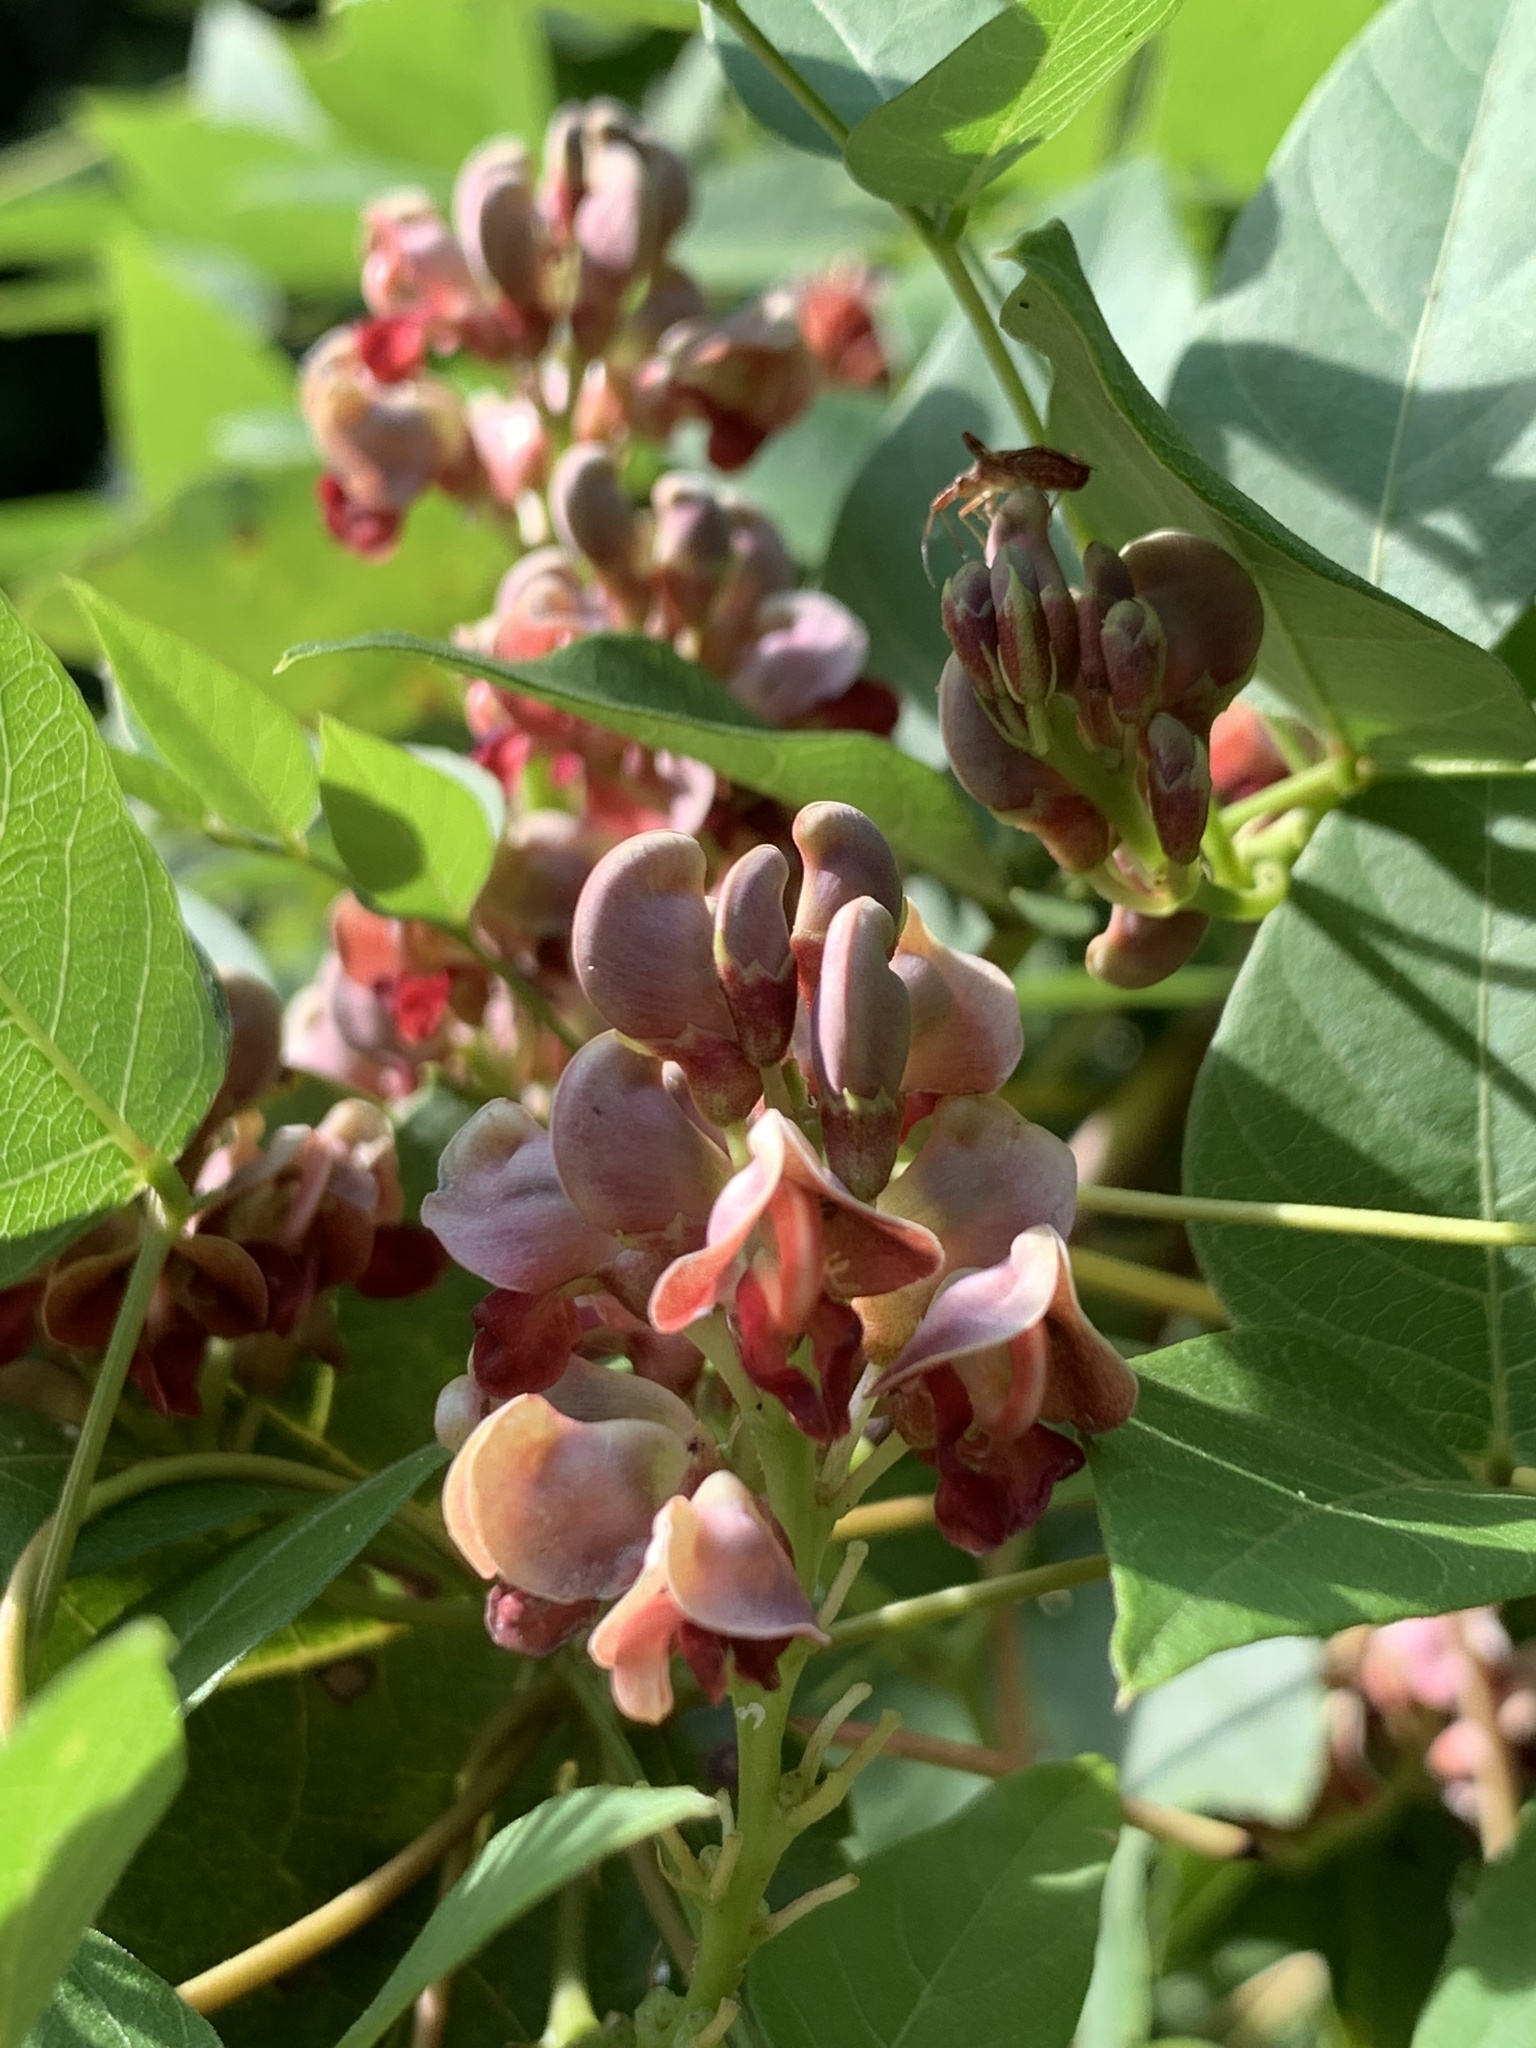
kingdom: Plantae
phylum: Tracheophyta
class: Magnoliopsida
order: Fabales
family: Fabaceae
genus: Apios
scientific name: Apios americana
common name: American potato-bean
